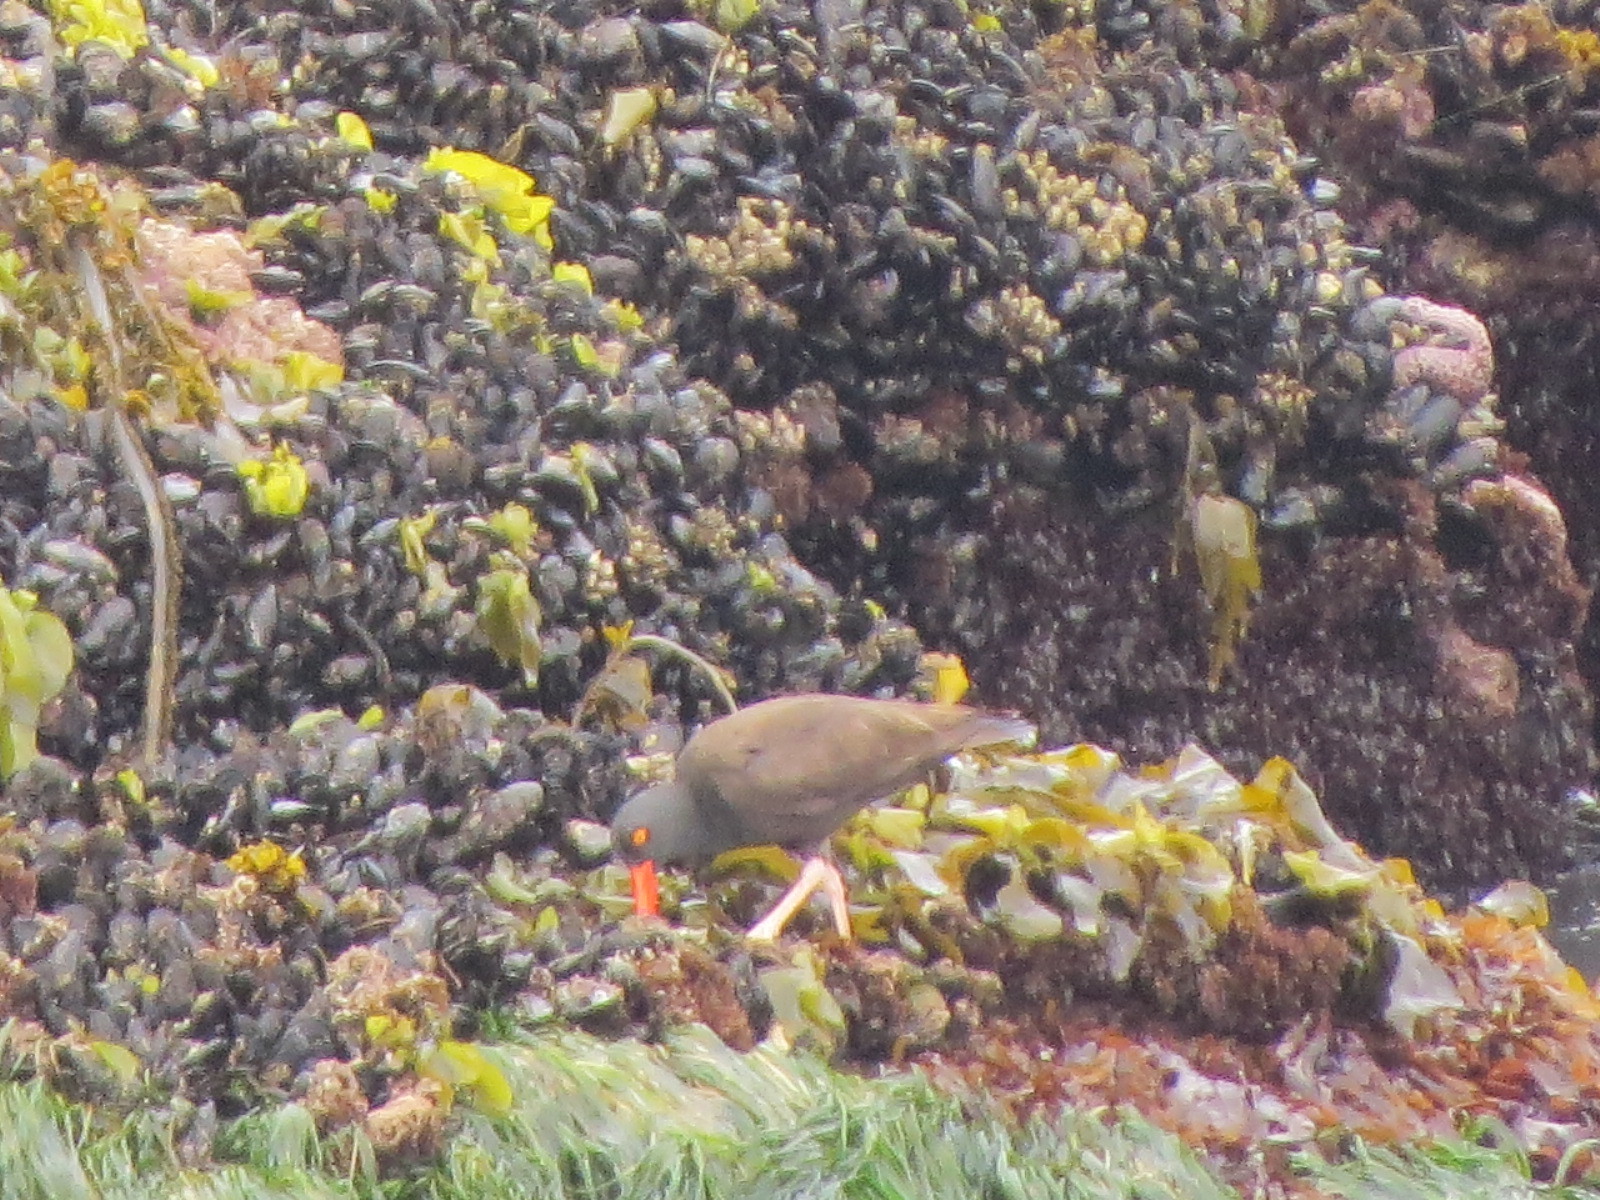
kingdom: Animalia
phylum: Chordata
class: Aves
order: Charadriiformes
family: Haematopodidae
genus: Haematopus
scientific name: Haematopus bachmani
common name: Black oystercatcher
